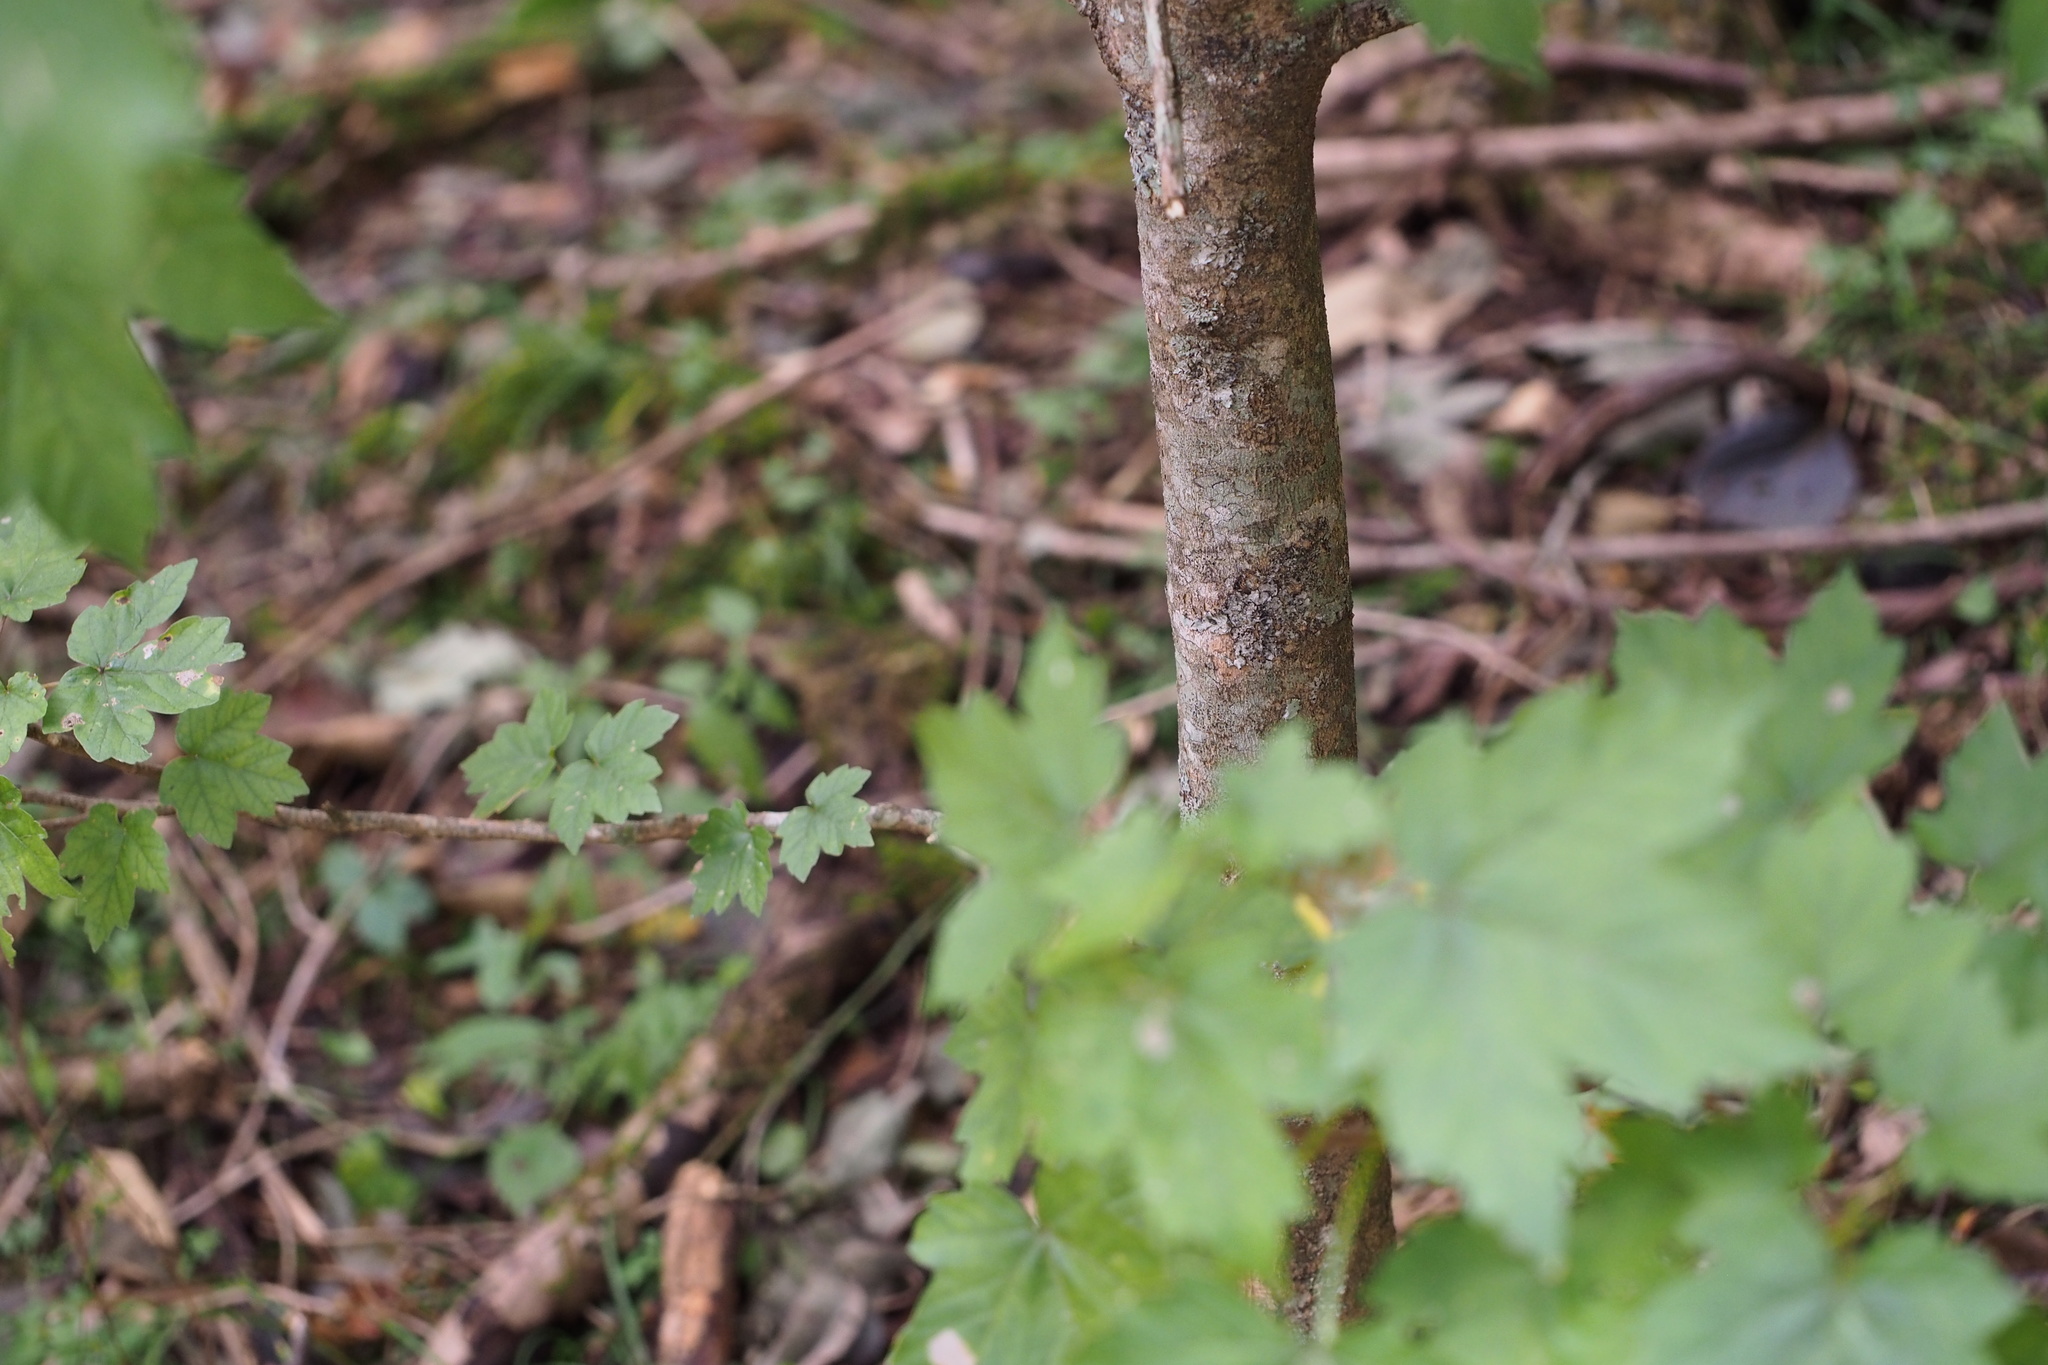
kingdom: Plantae
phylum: Tracheophyta
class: Magnoliopsida
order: Sapindales
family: Sapindaceae
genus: Acer
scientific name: Acer diabolicum
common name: Devil maple
